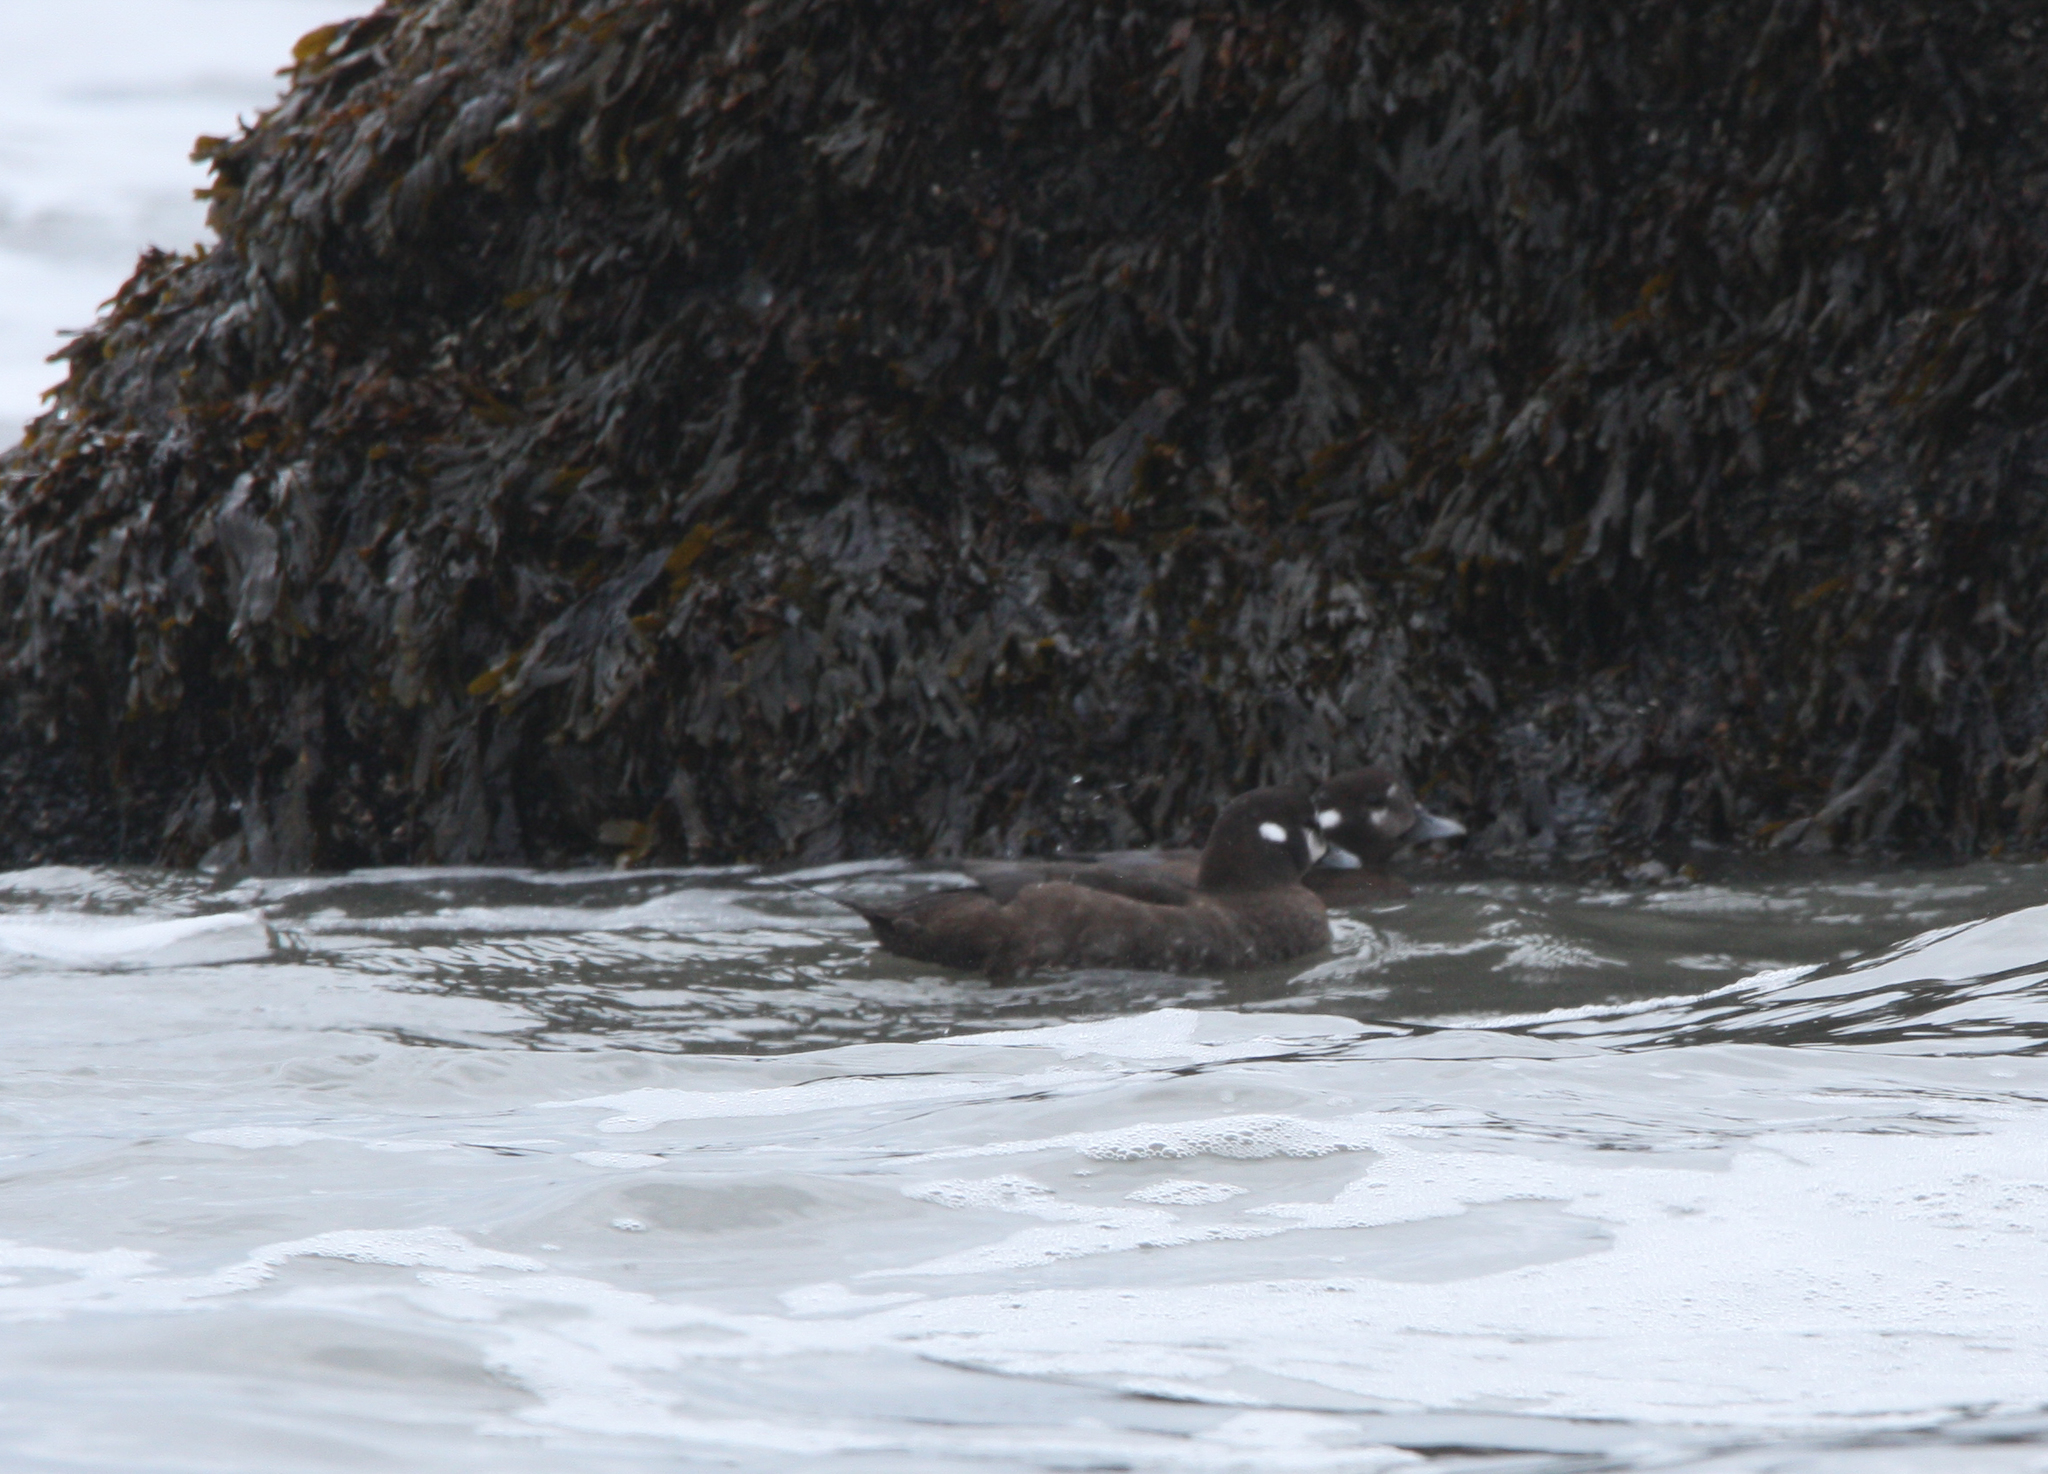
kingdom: Animalia
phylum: Chordata
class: Aves
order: Anseriformes
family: Anatidae
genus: Histrionicus
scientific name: Histrionicus histrionicus
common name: Harlequin duck
